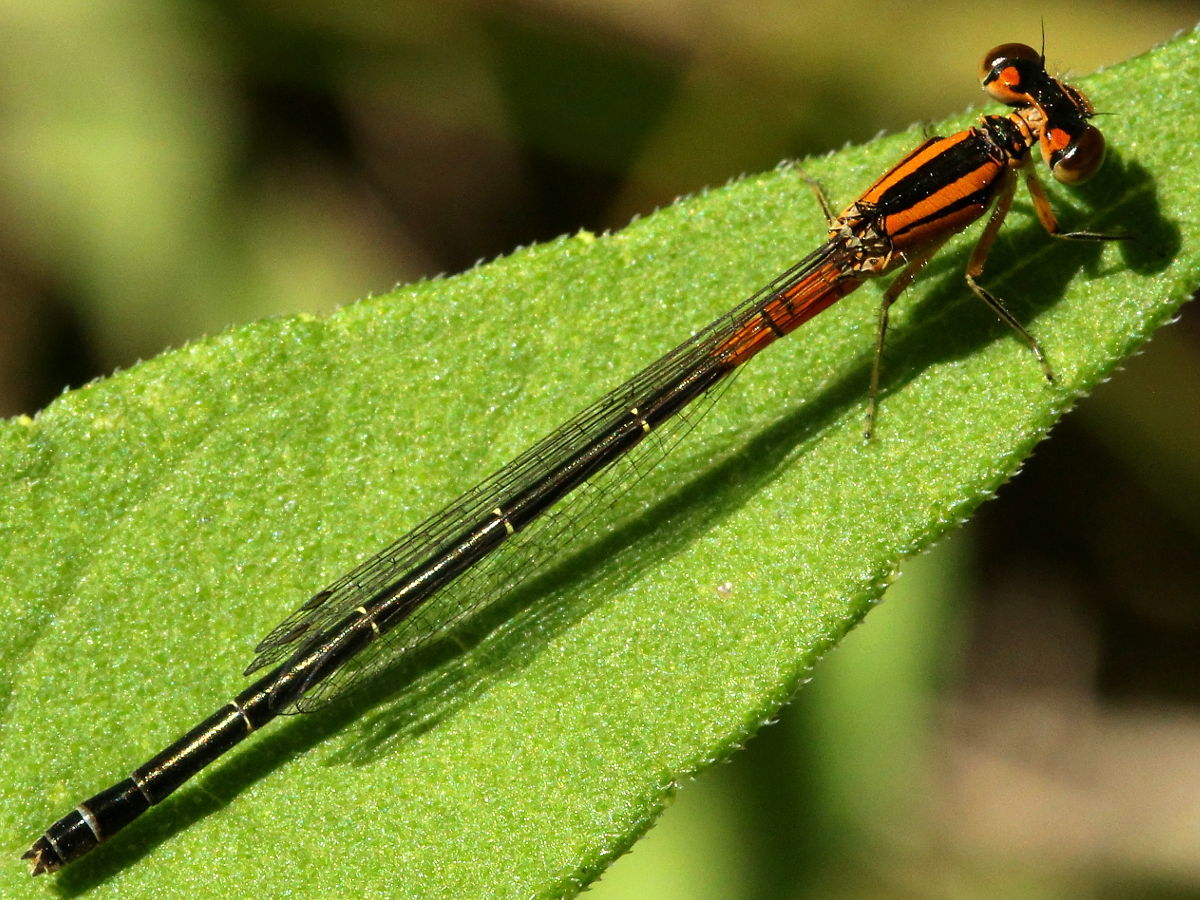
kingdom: Animalia
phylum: Arthropoda
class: Insecta
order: Odonata
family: Coenagrionidae
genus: Ischnura
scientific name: Ischnura verticalis
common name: Eastern forktail
